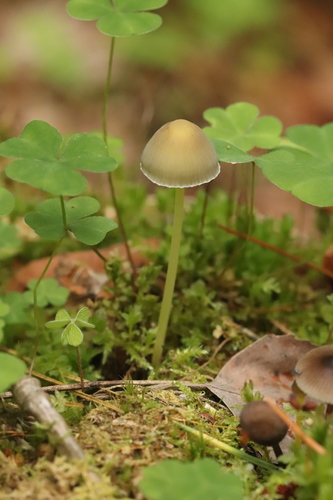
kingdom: Fungi
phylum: Basidiomycota
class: Agaricomycetes
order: Agaricales
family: Mycenaceae
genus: Mycena
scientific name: Mycena epipterygia
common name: Yellowleg bonnet
